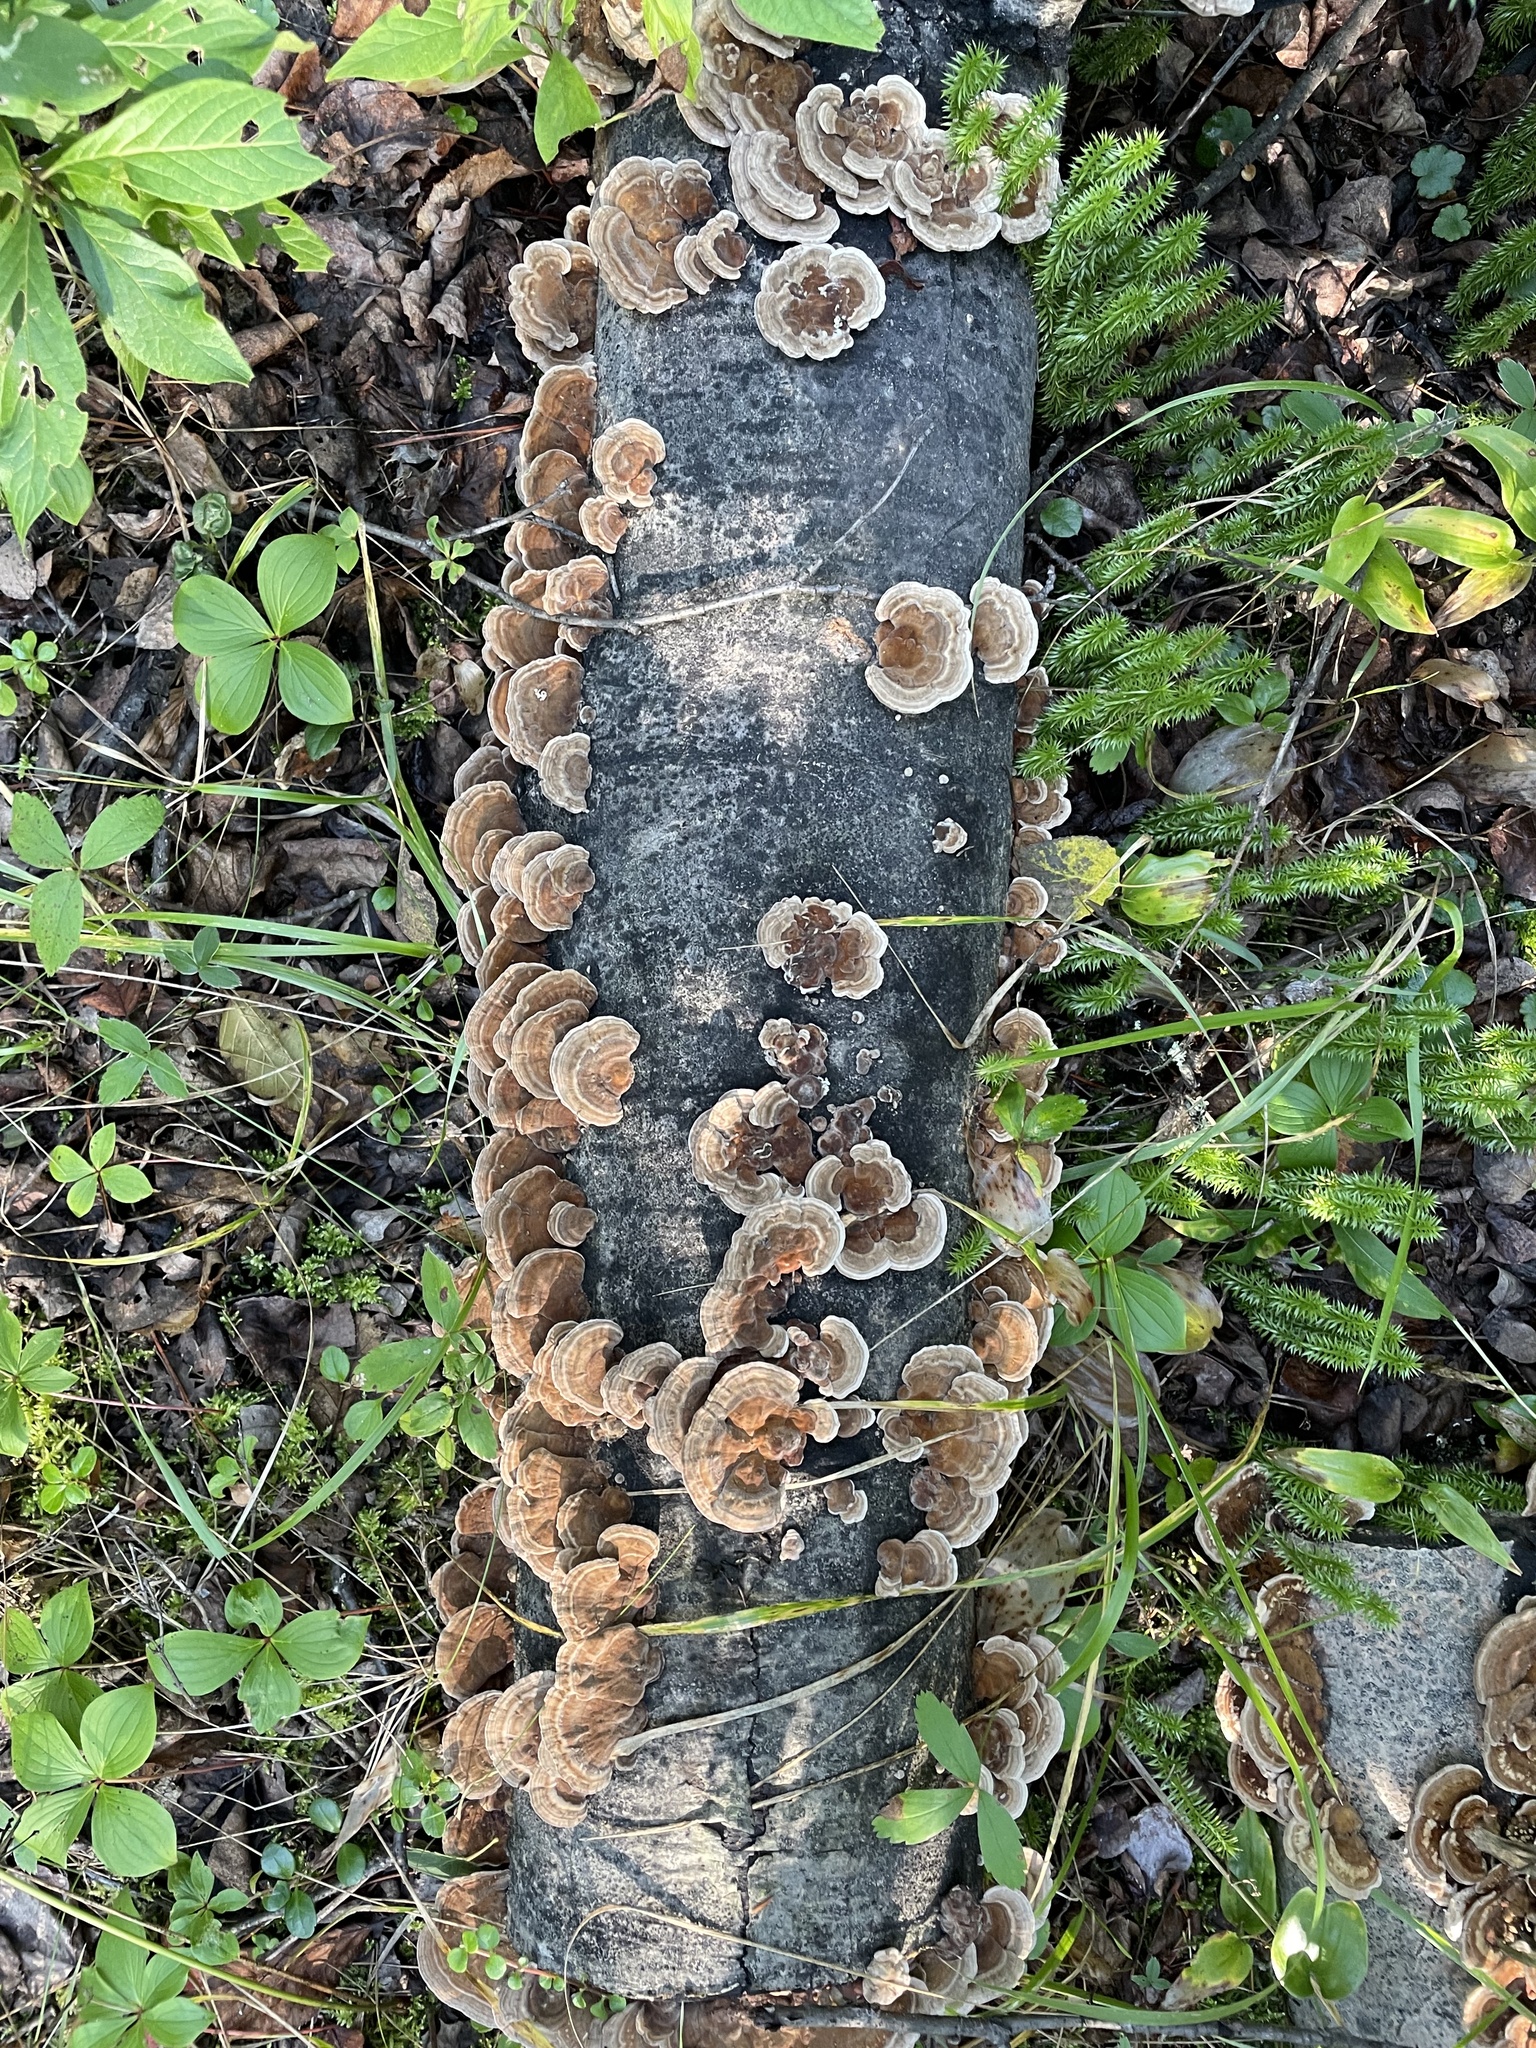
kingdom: Plantae
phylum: Tracheophyta
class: Lycopodiopsida
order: Lycopodiales
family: Lycopodiaceae
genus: Spinulum
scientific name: Spinulum annotinum
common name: Interrupted club-moss
